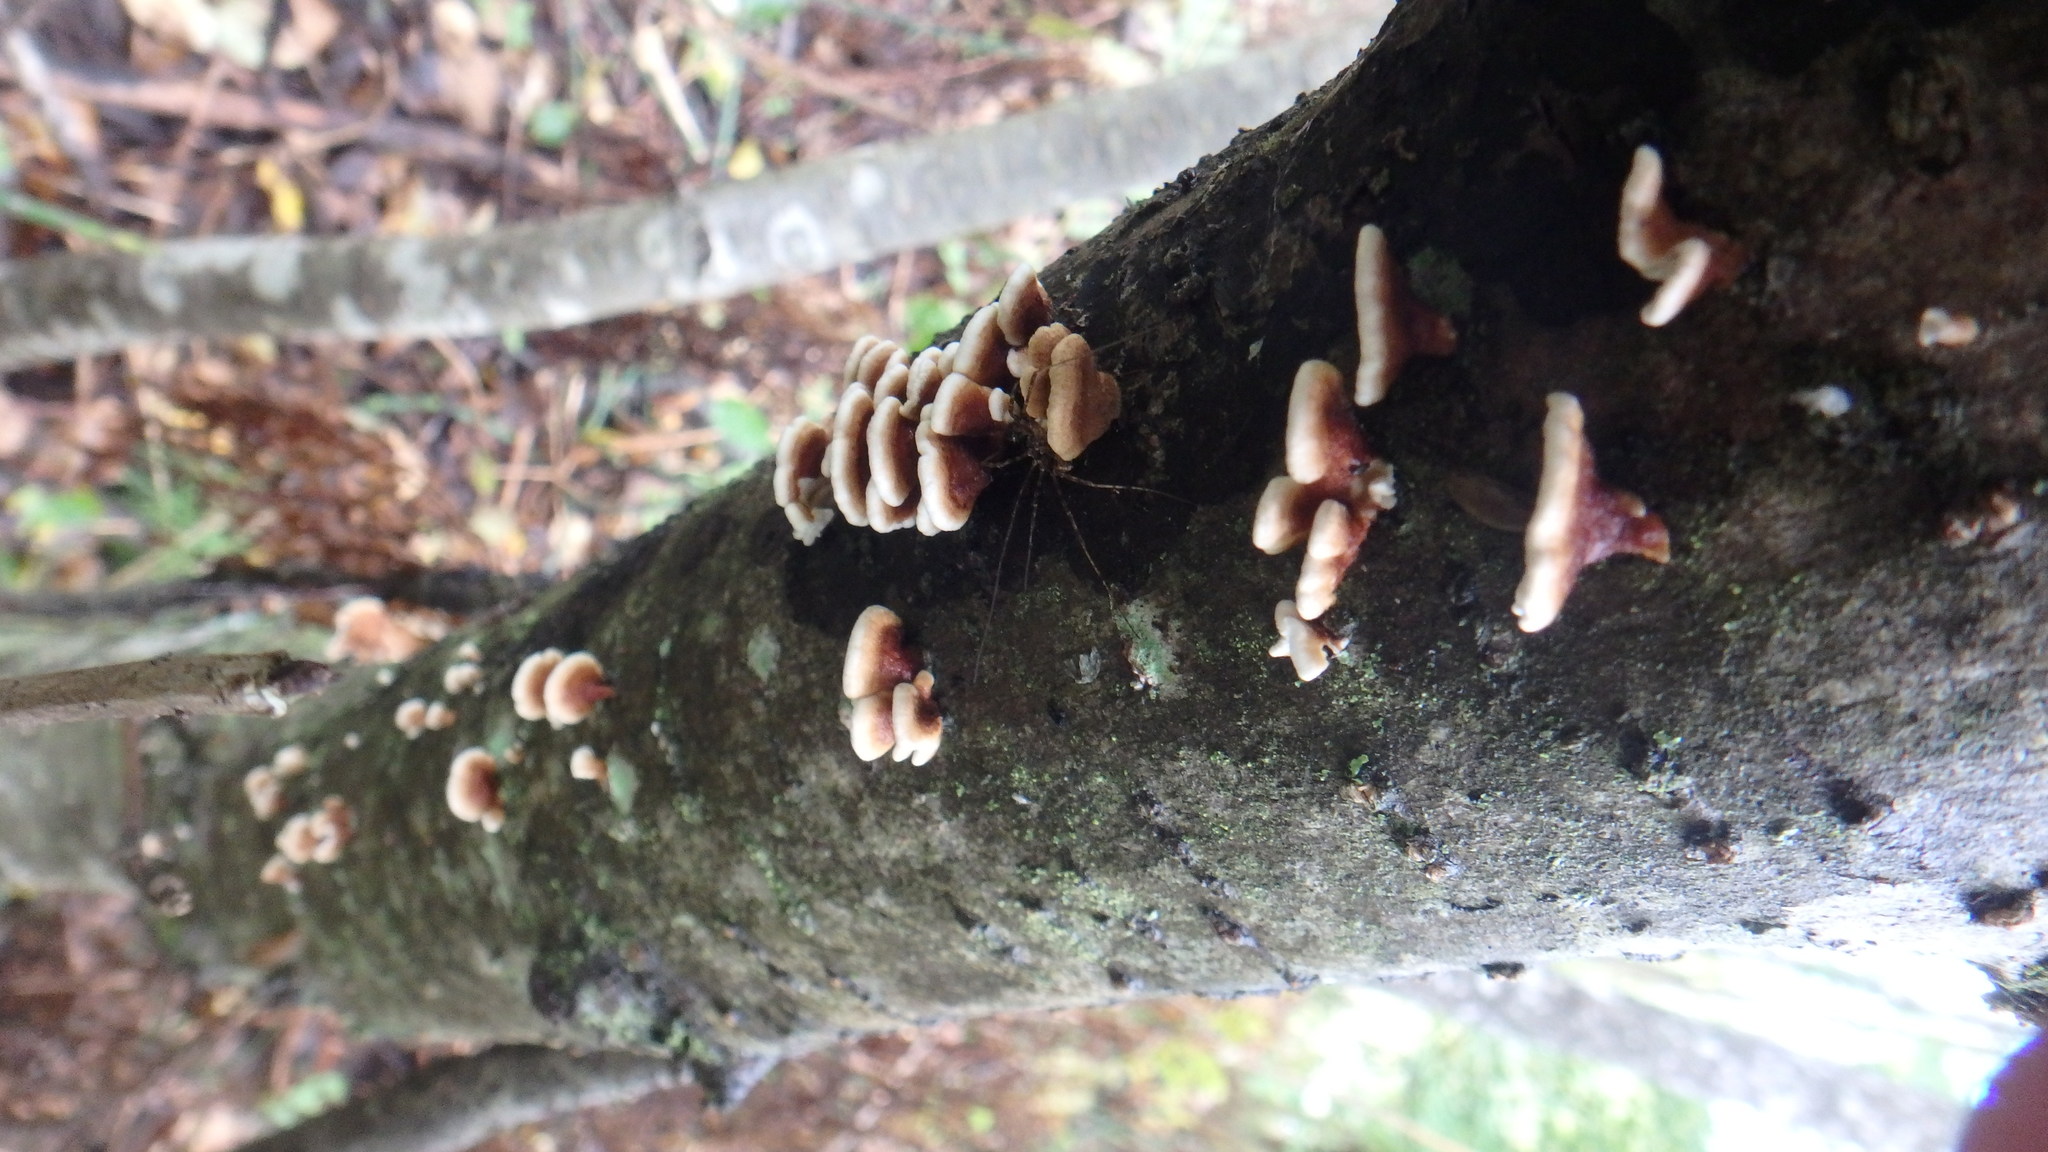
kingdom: Fungi
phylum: Basidiomycota
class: Agaricomycetes
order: Amylocorticiales
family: Amylocorticiaceae
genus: Plicaturopsis
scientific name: Plicaturopsis crispa
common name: Crimped gill
